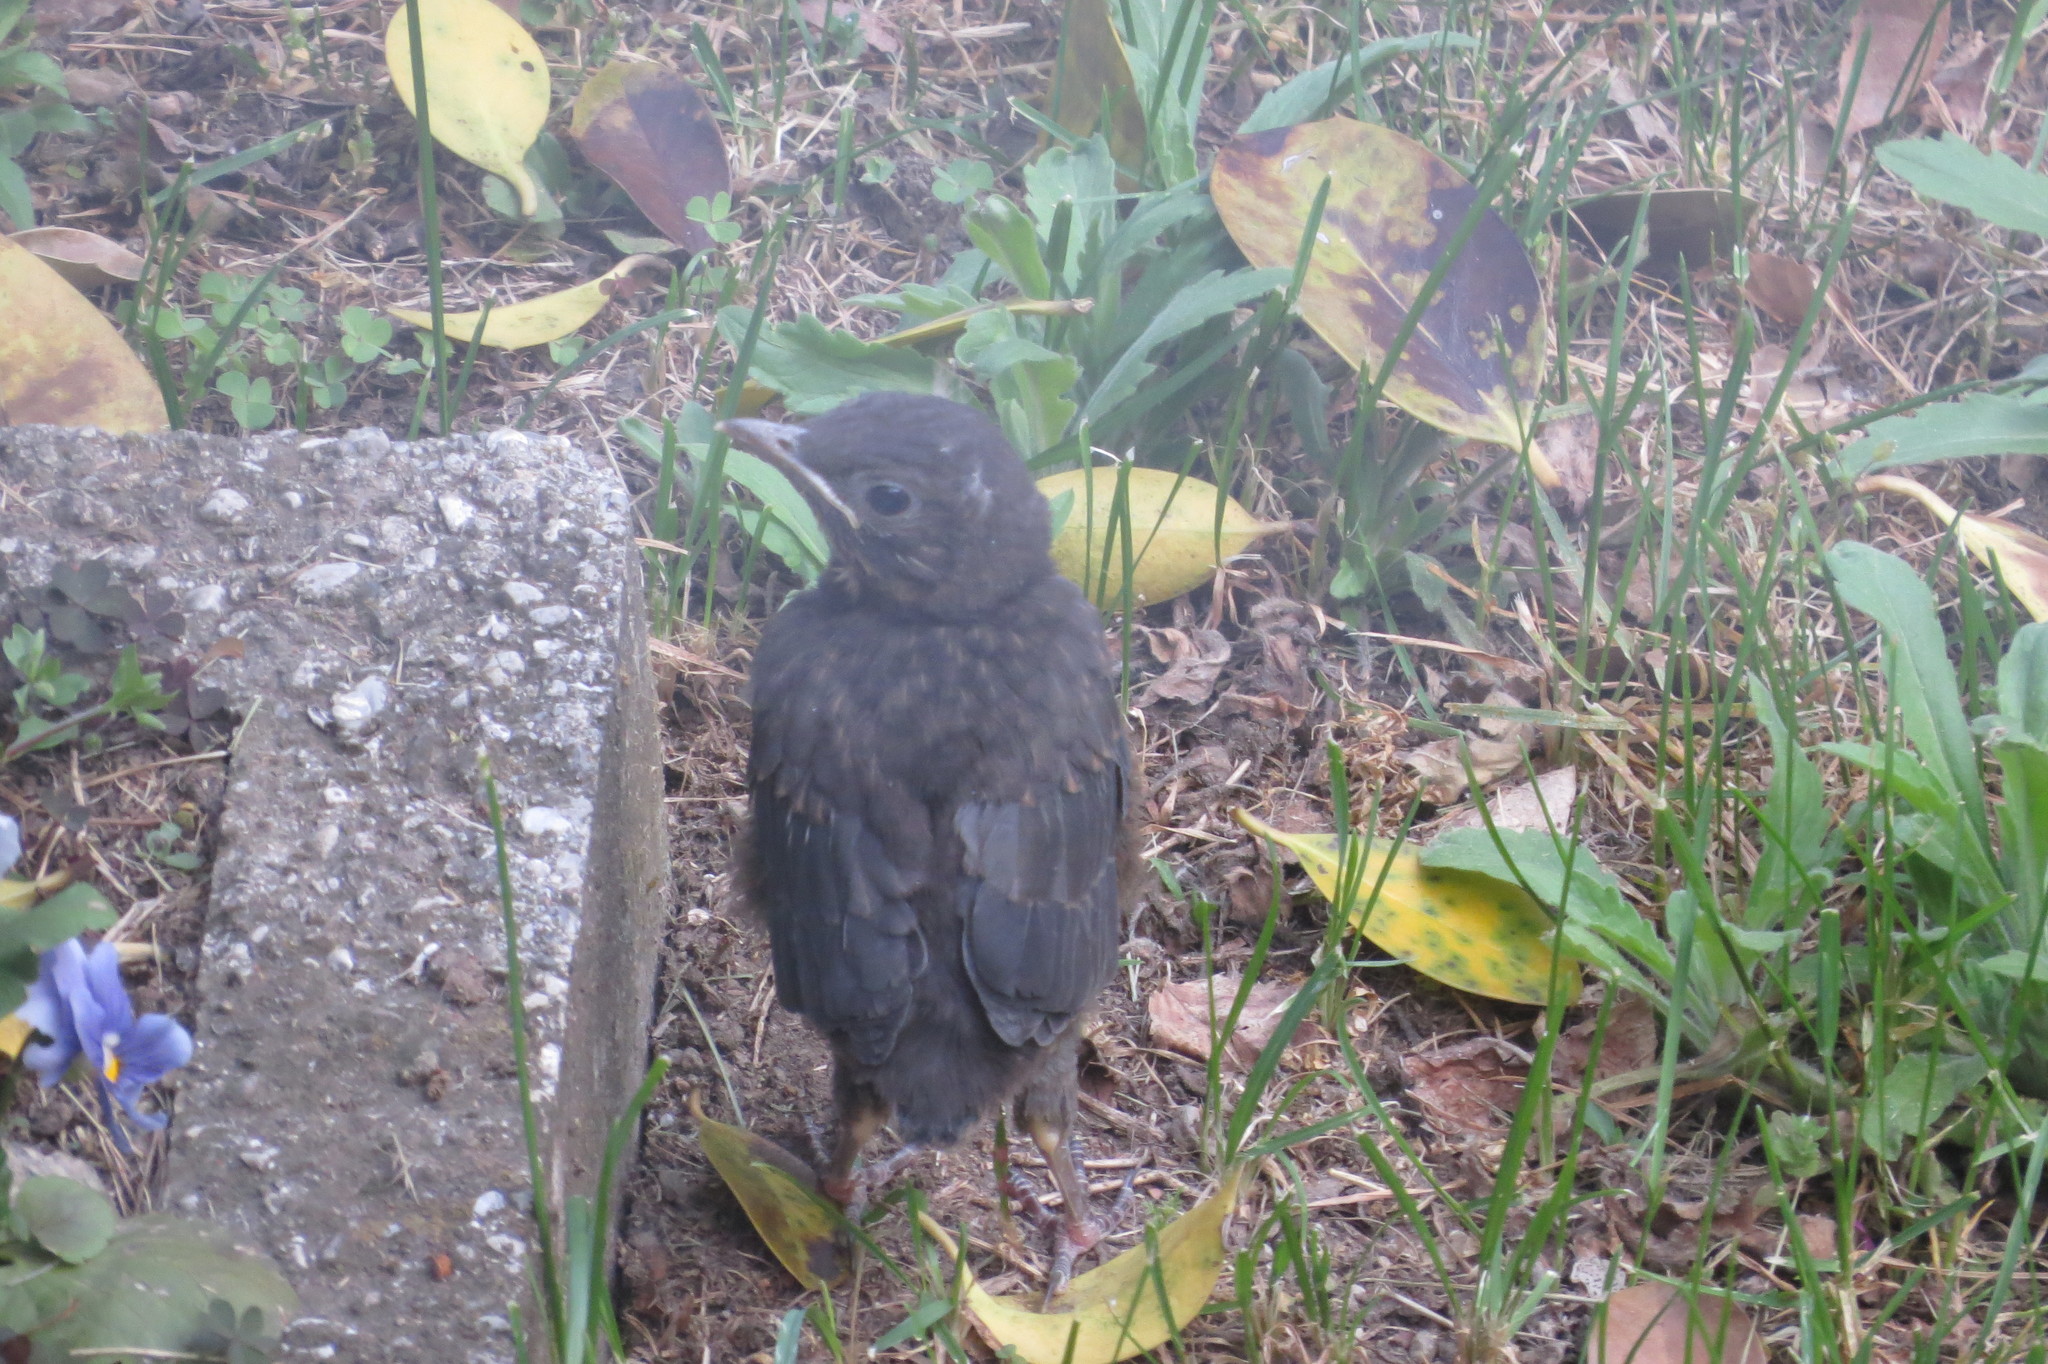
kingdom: Animalia
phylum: Chordata
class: Aves
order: Passeriformes
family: Turdidae
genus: Turdus
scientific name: Turdus merula
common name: Common blackbird
